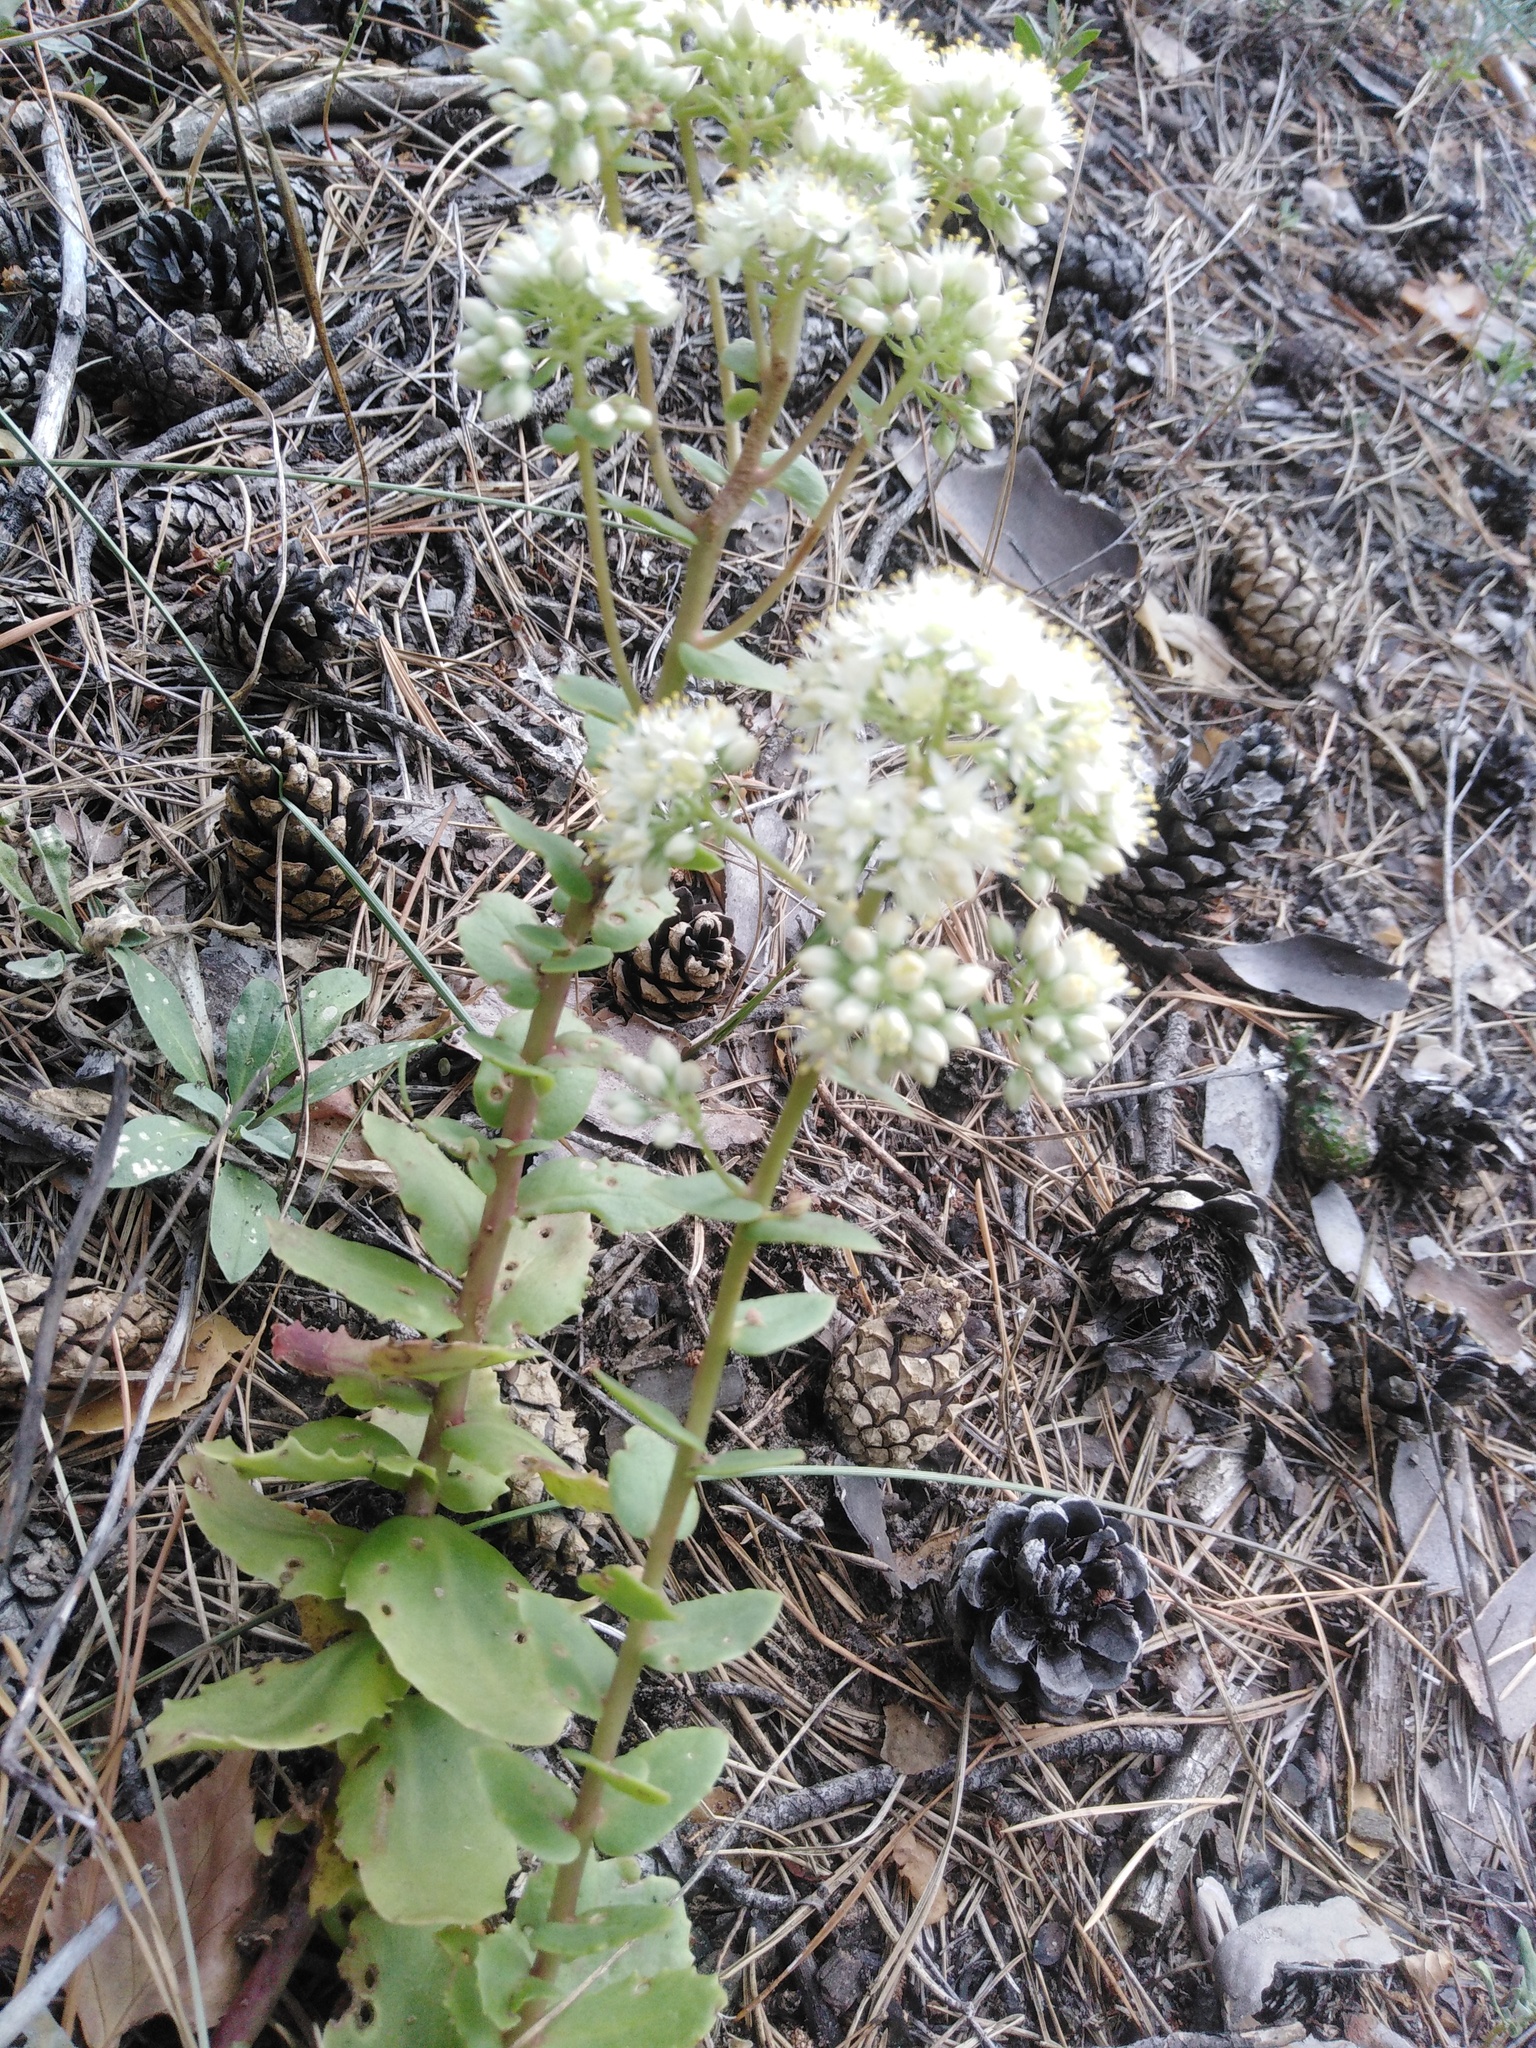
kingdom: Plantae
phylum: Tracheophyta
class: Magnoliopsida
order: Saxifragales
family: Crassulaceae
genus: Hylotelephium
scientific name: Hylotelephium maximum
